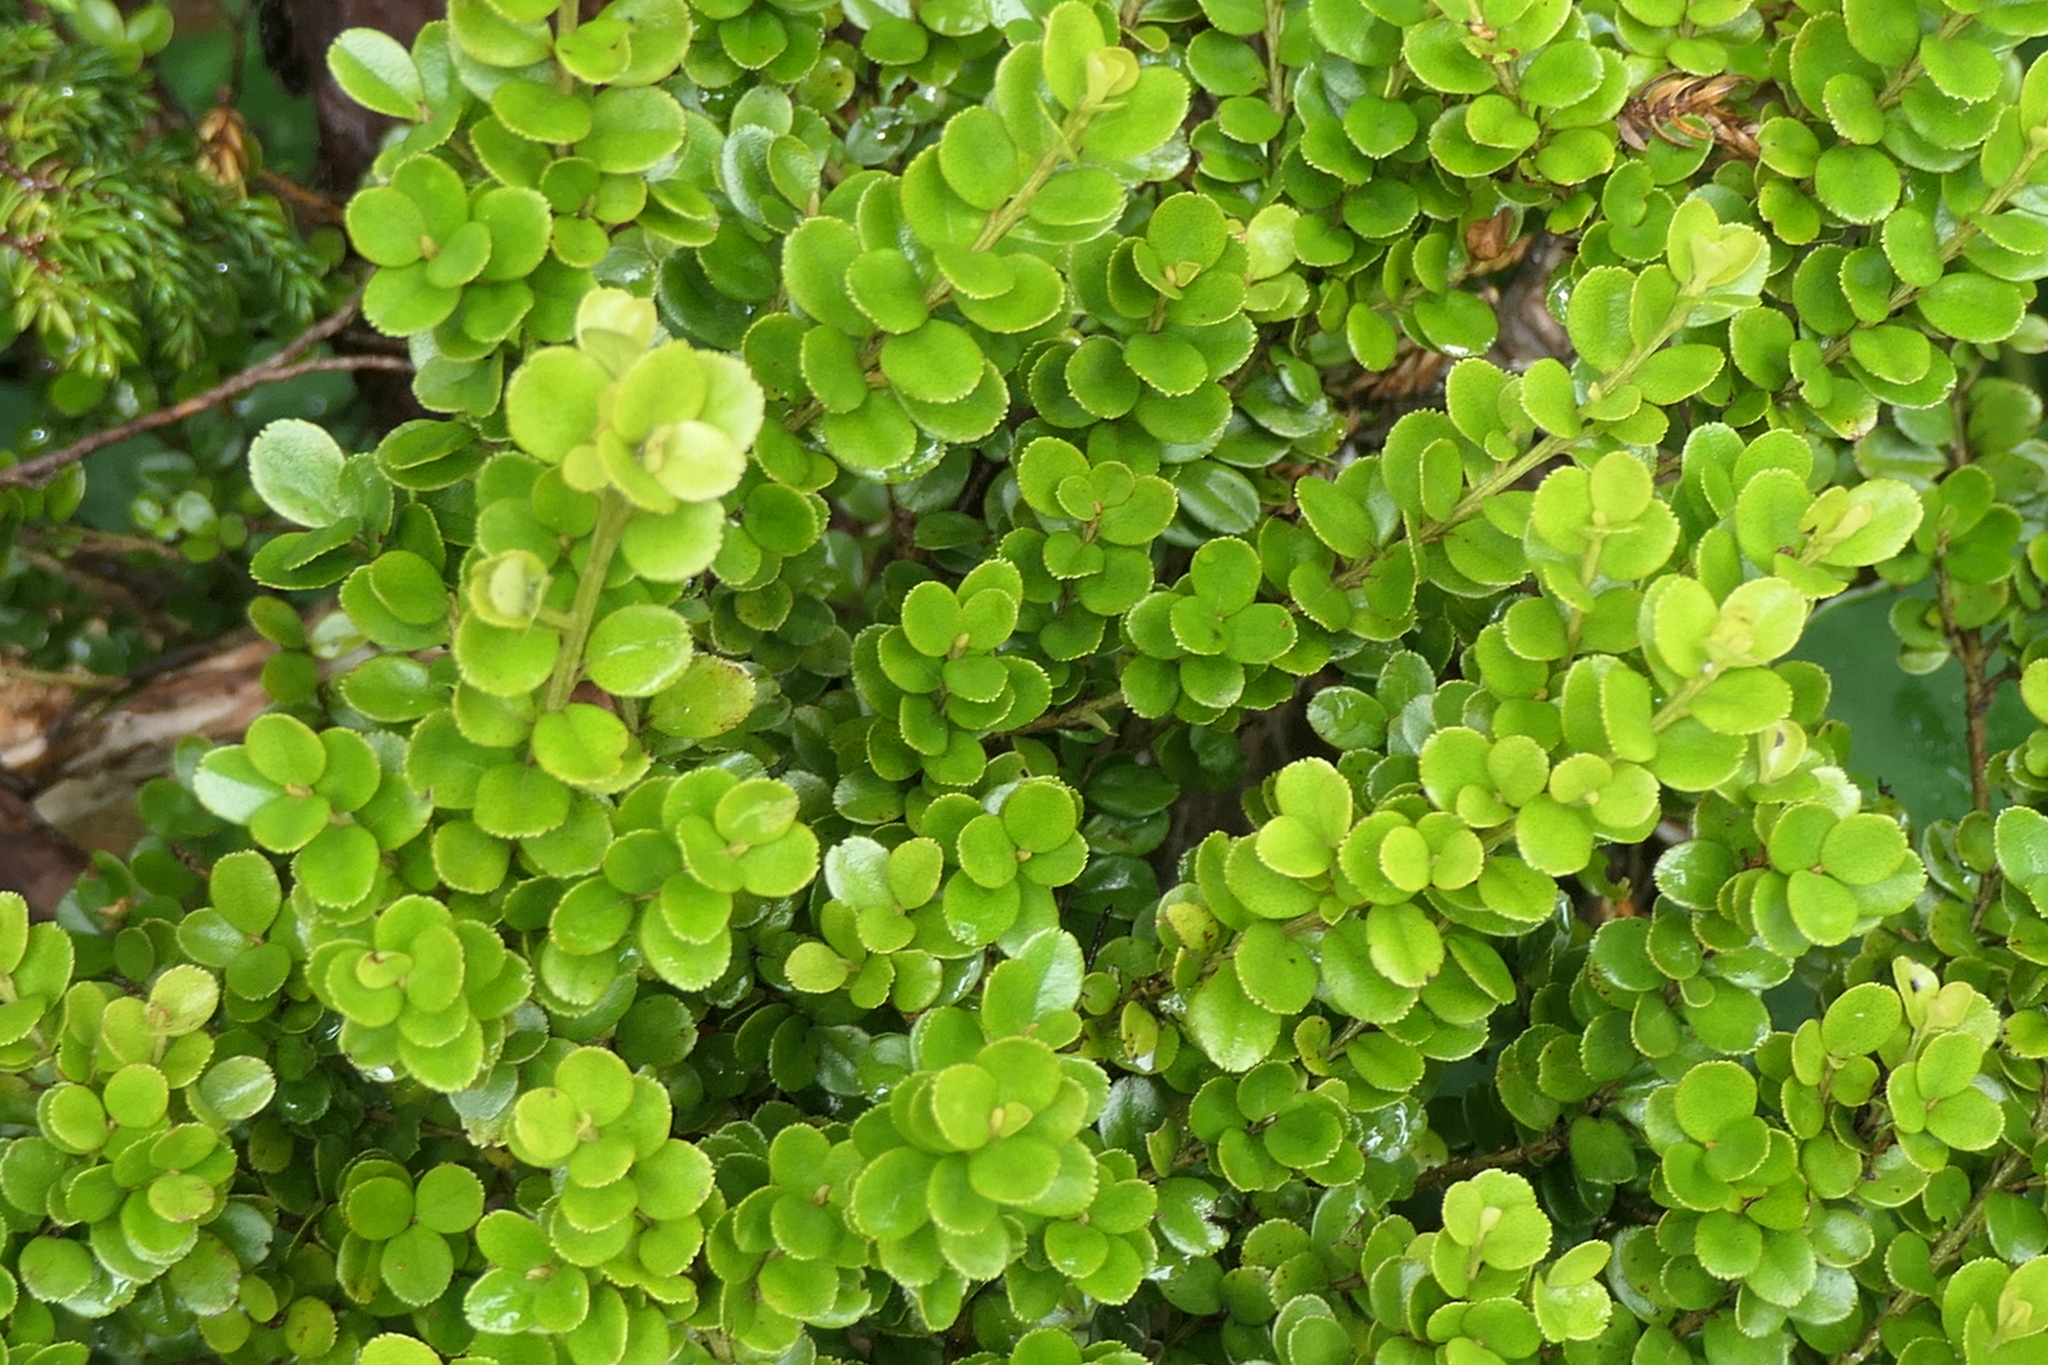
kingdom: Plantae
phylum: Tracheophyta
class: Magnoliopsida
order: Ericales
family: Primulaceae
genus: Myrsine
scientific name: Myrsine africana
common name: African-boxwood
